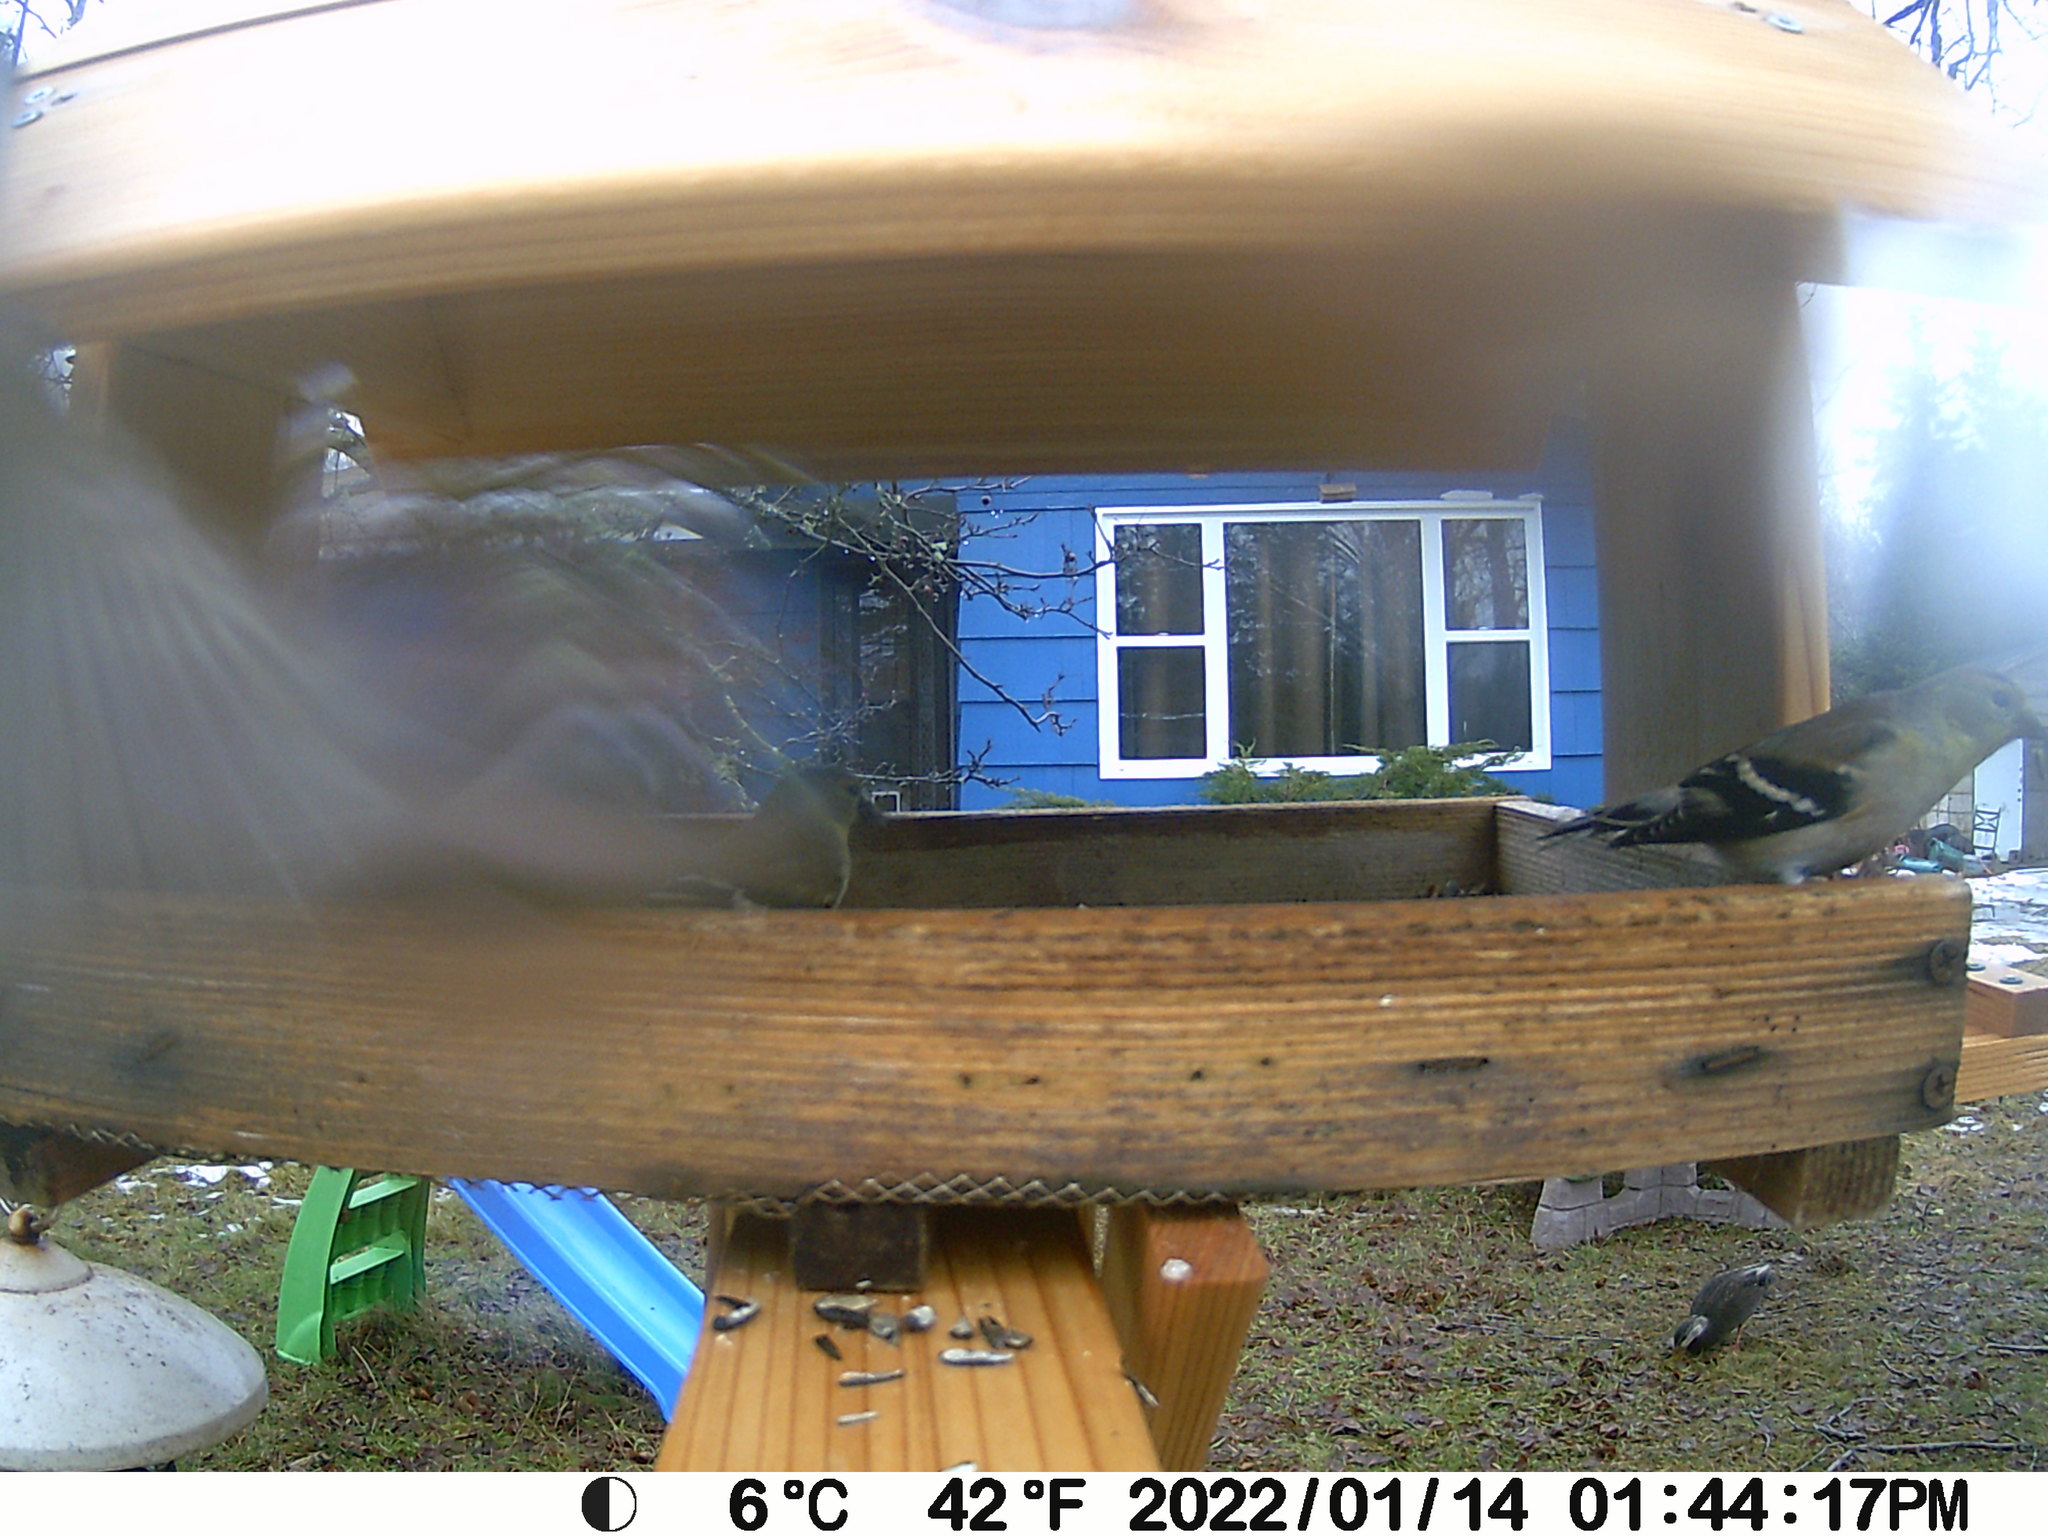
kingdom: Animalia
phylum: Chordata
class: Aves
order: Anseriformes
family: Anatidae
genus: Anas
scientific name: Anas rubripes
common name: American black duck
